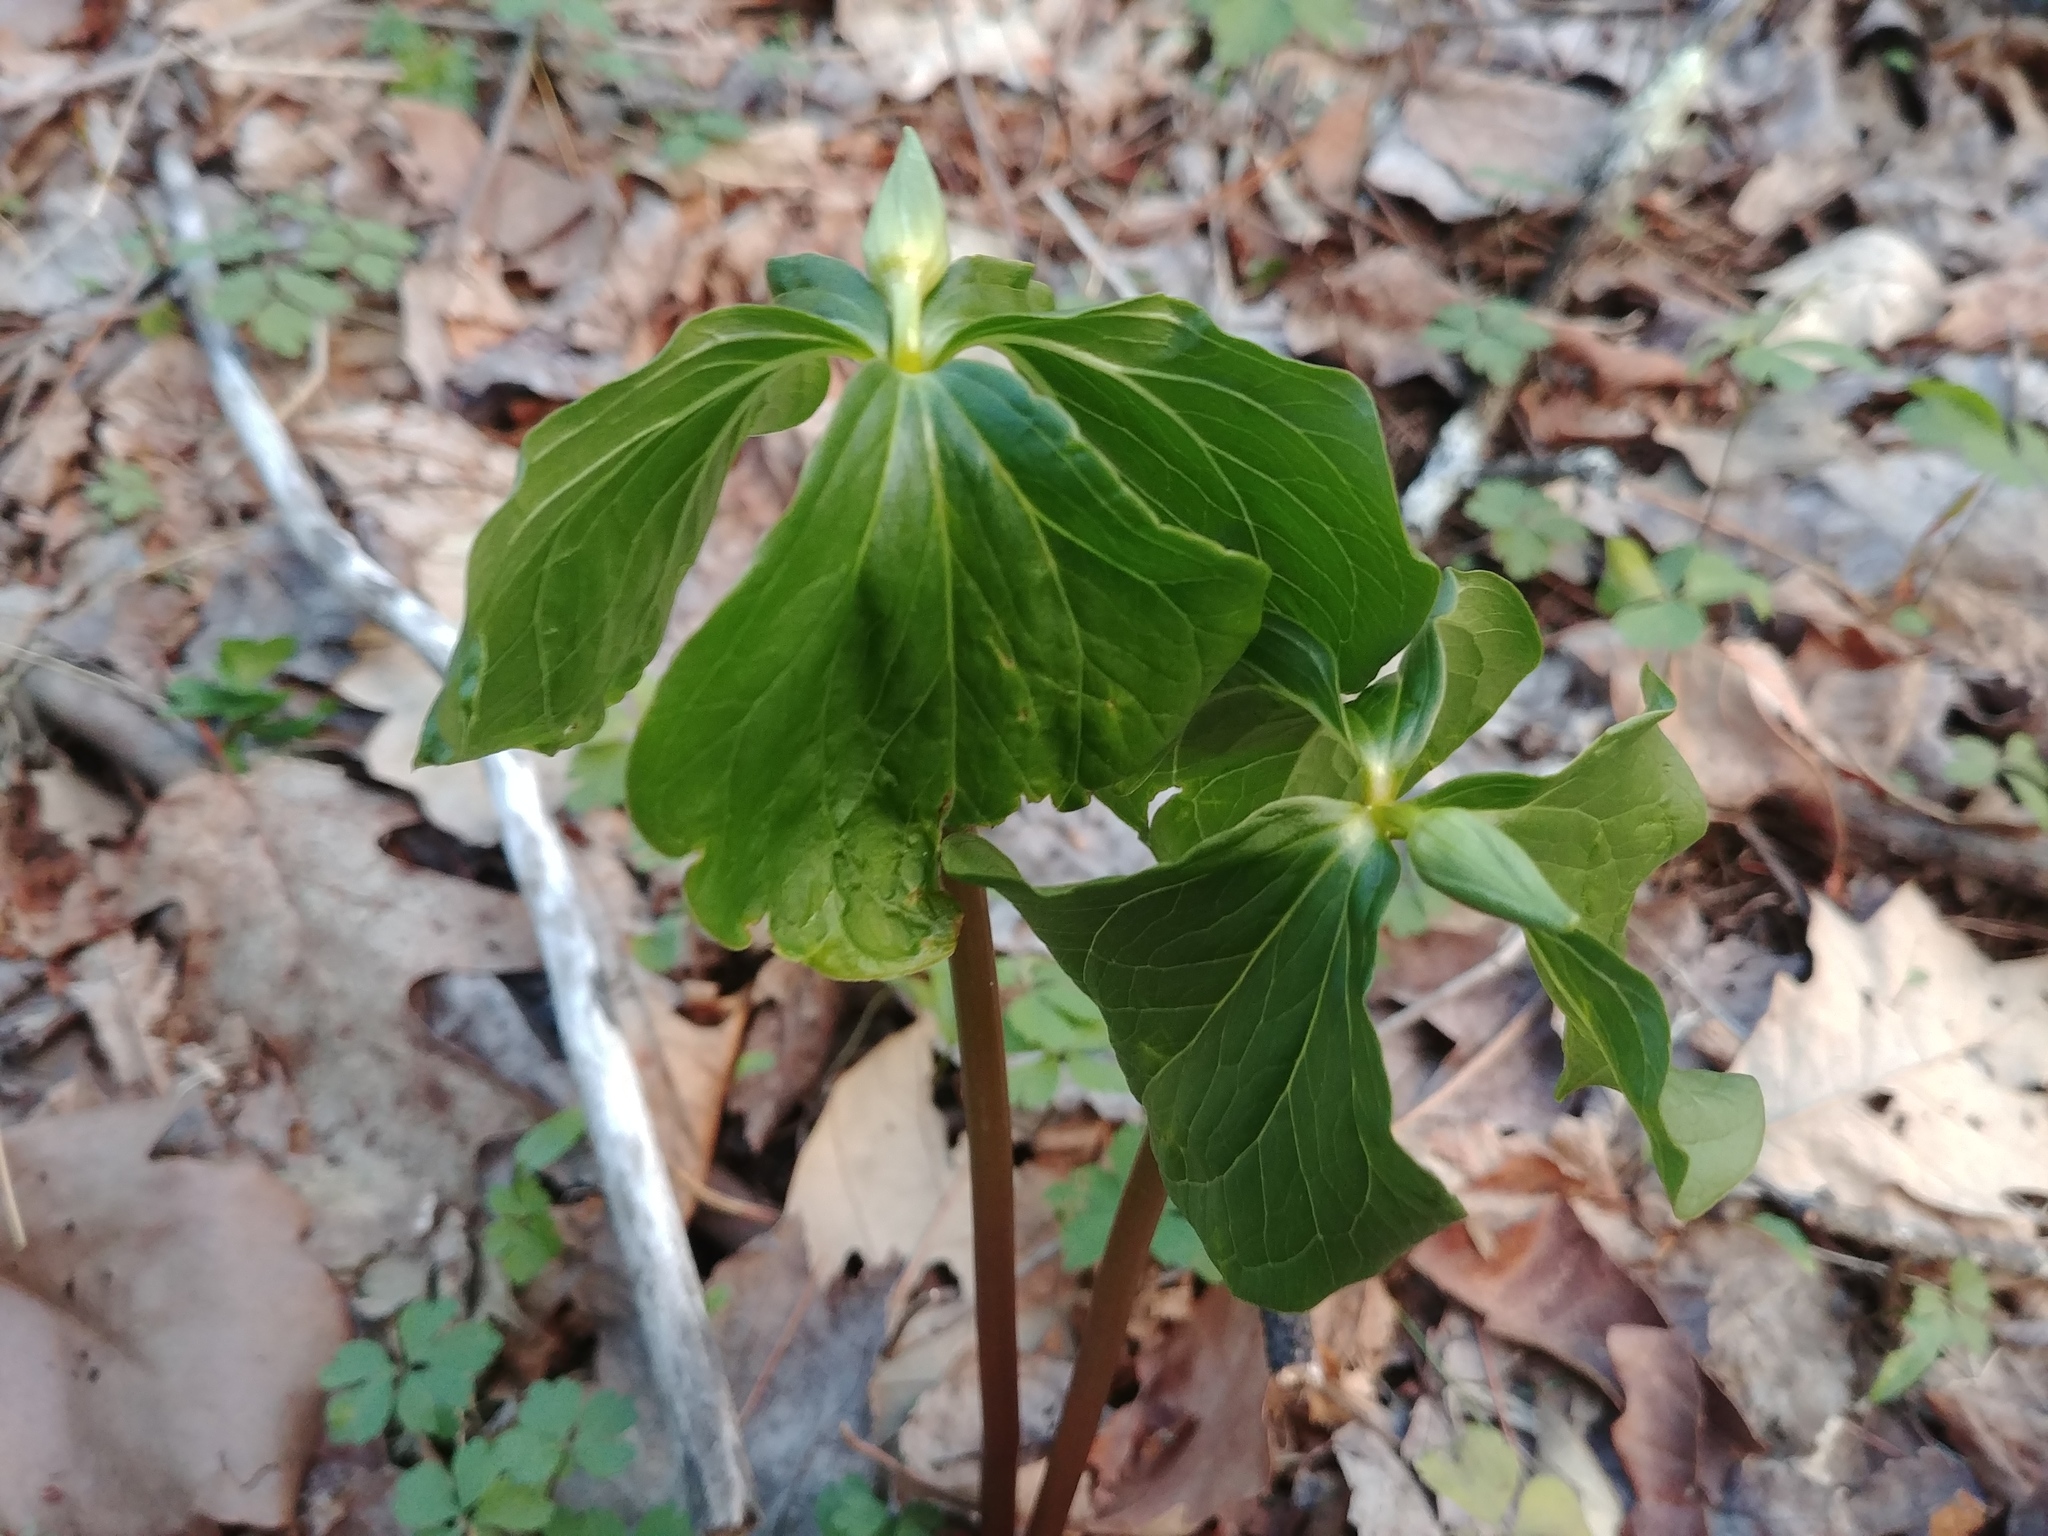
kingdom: Plantae
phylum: Tracheophyta
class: Liliopsida
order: Liliales
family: Melanthiaceae
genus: Trillium
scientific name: Trillium cernuum
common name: Nodding trillium
